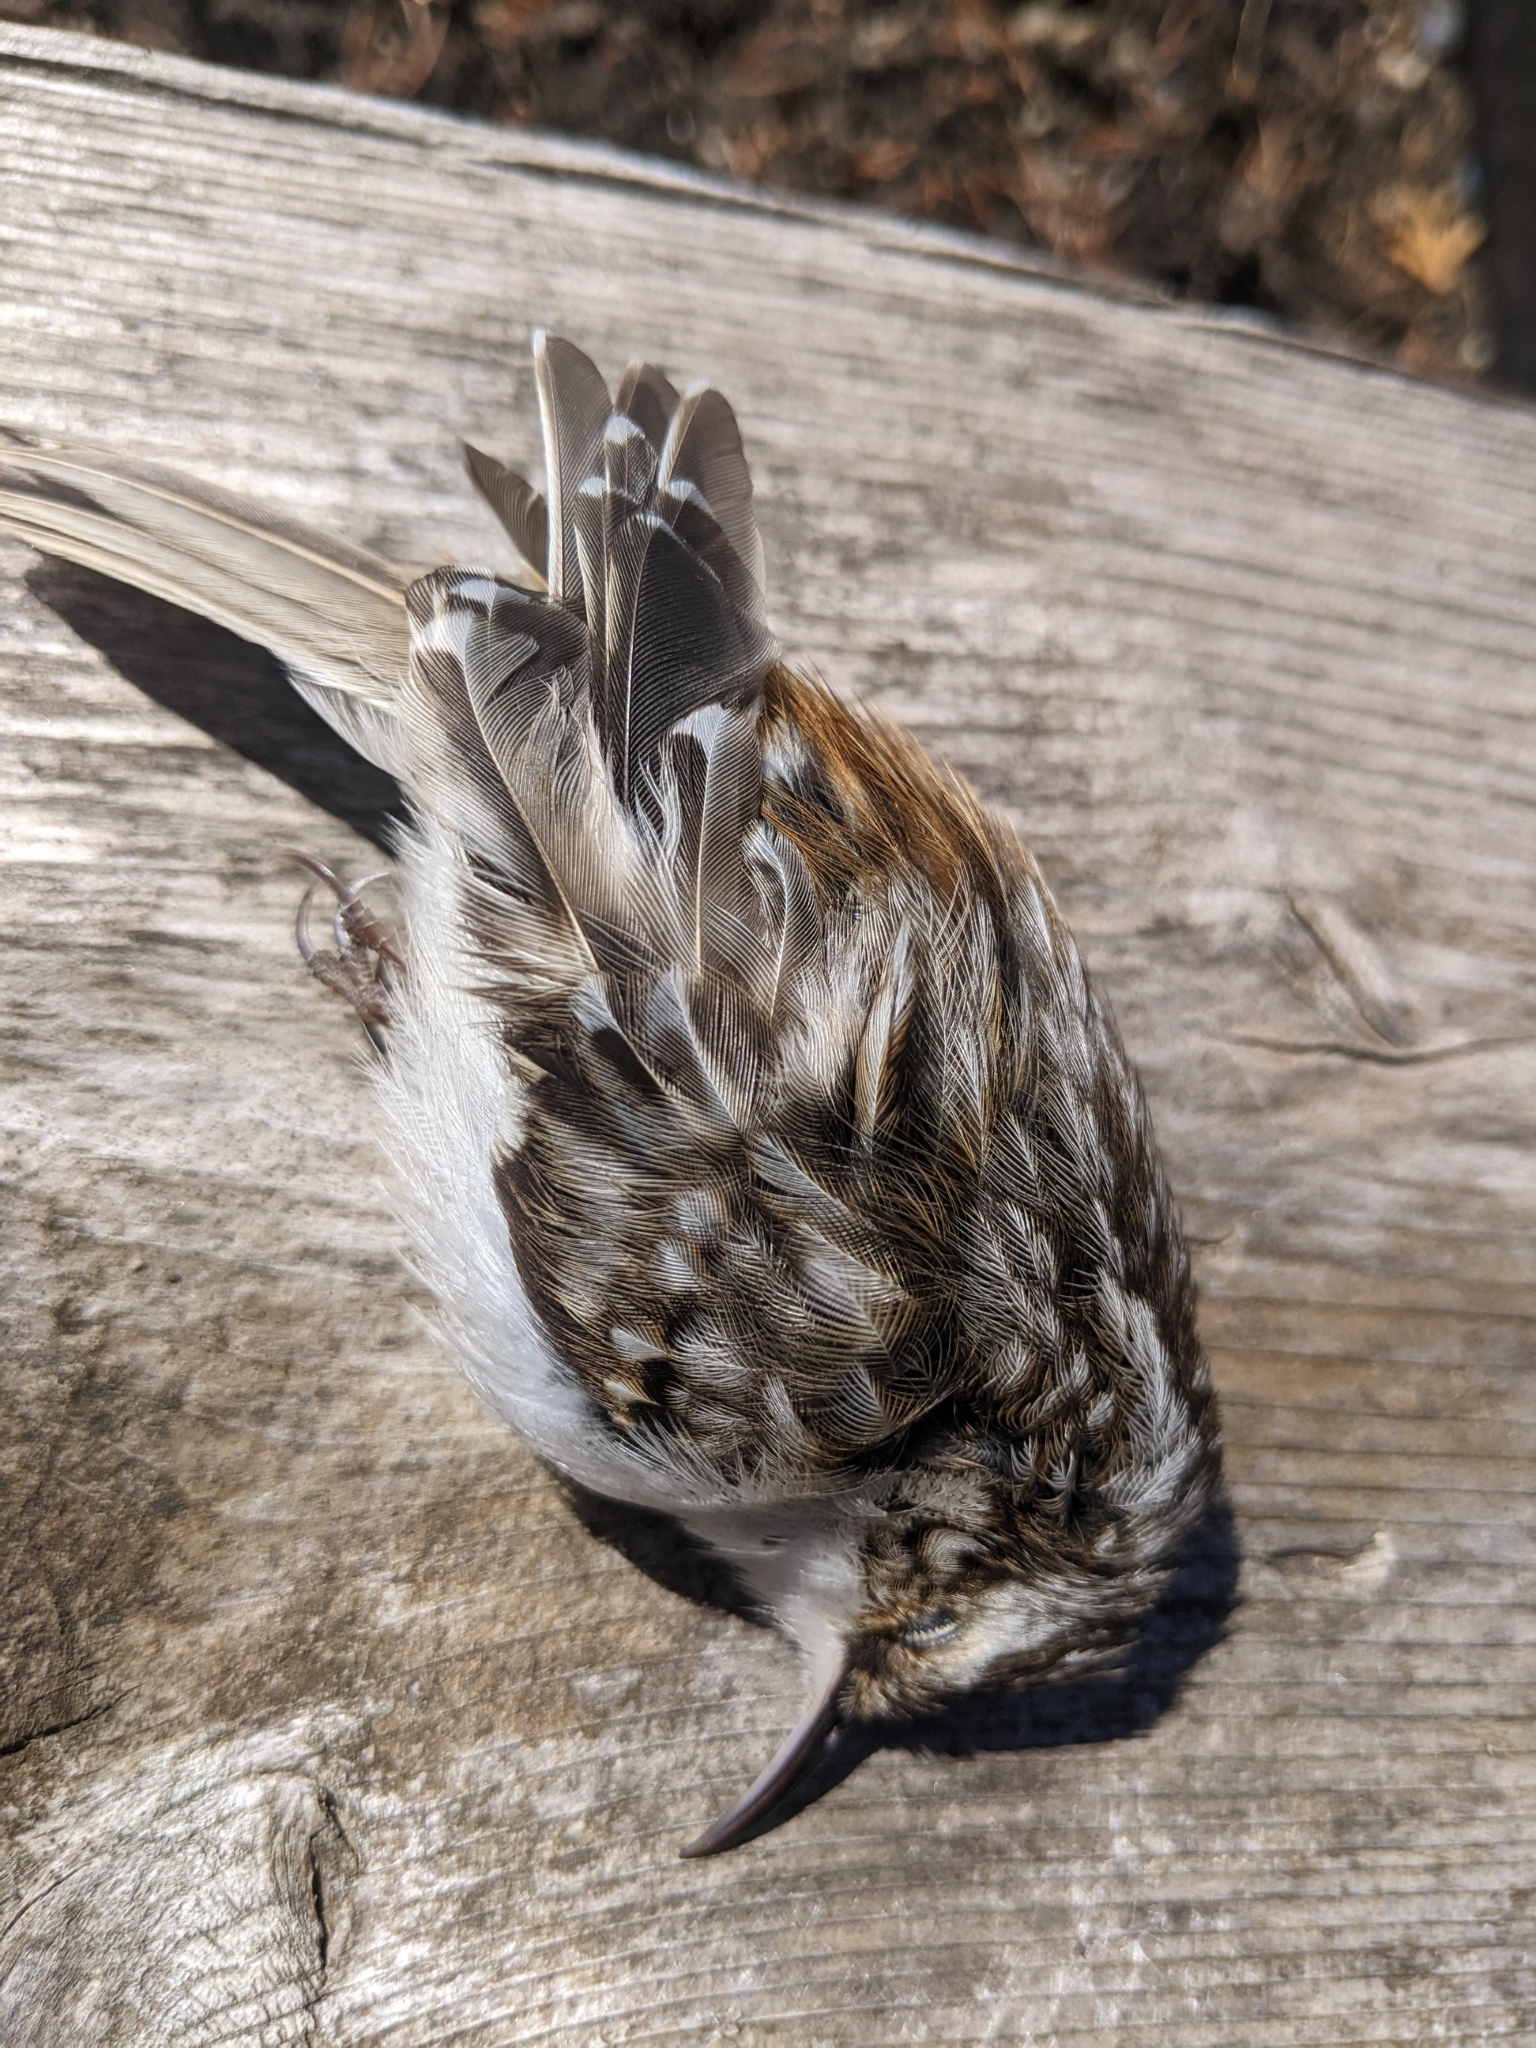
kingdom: Animalia
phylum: Chordata
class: Aves
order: Passeriformes
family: Certhiidae
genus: Certhia
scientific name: Certhia americana
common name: Brown creeper
